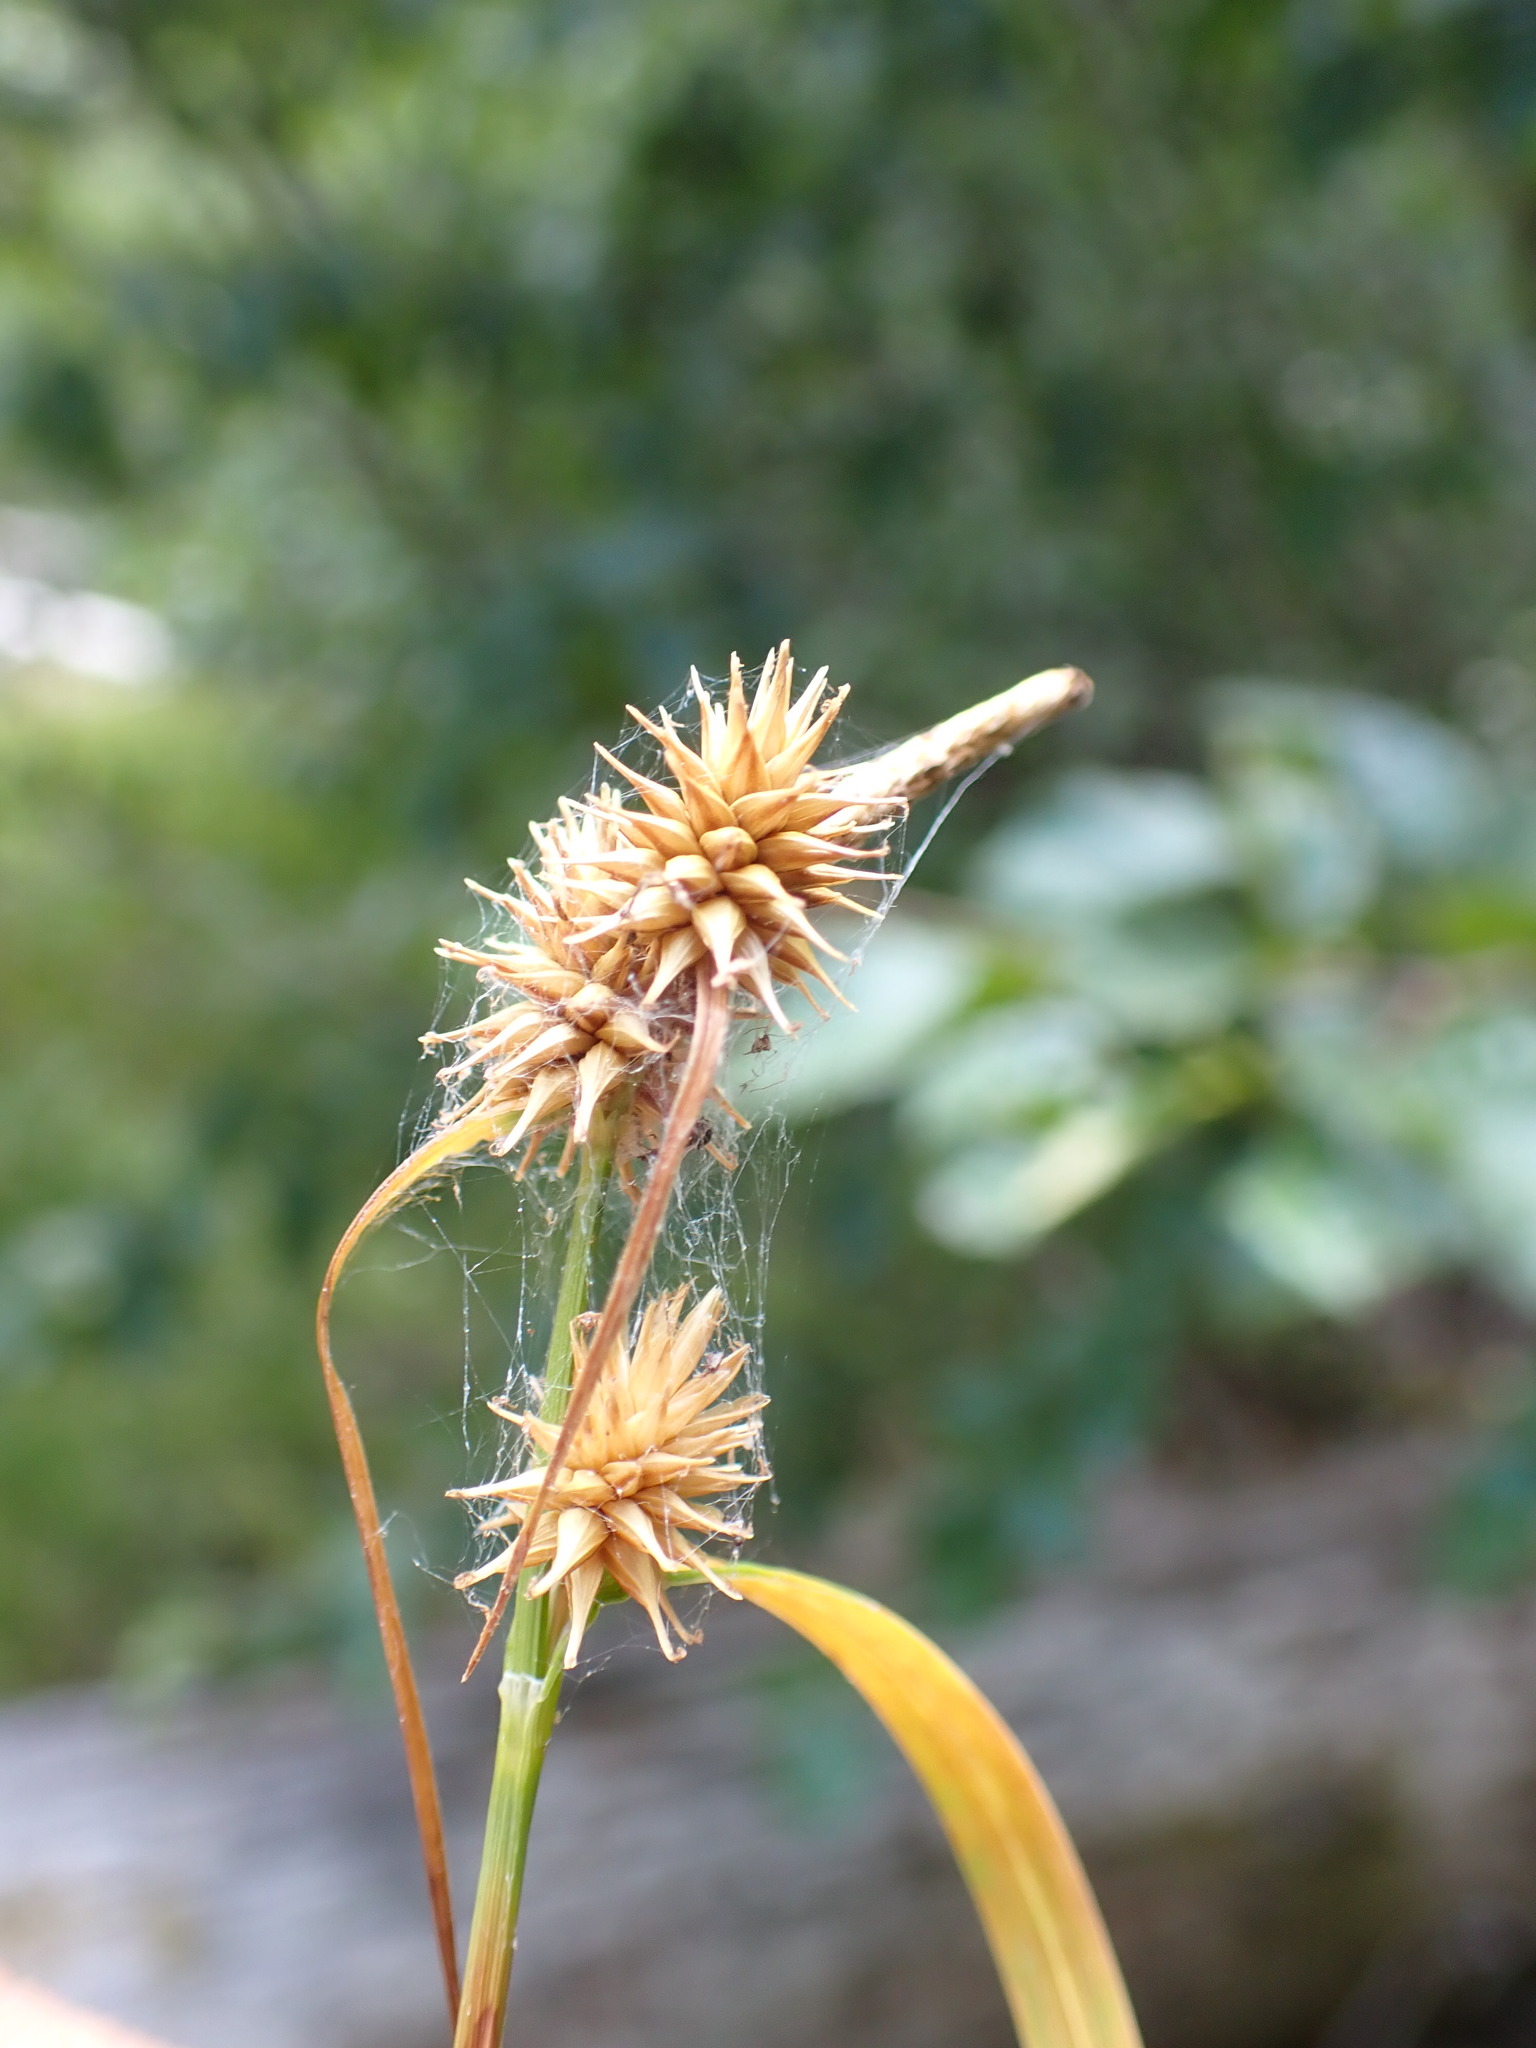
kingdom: Plantae
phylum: Tracheophyta
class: Liliopsida
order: Poales
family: Cyperaceae
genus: Carex
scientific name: Carex flava
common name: Large yellow-sedge
